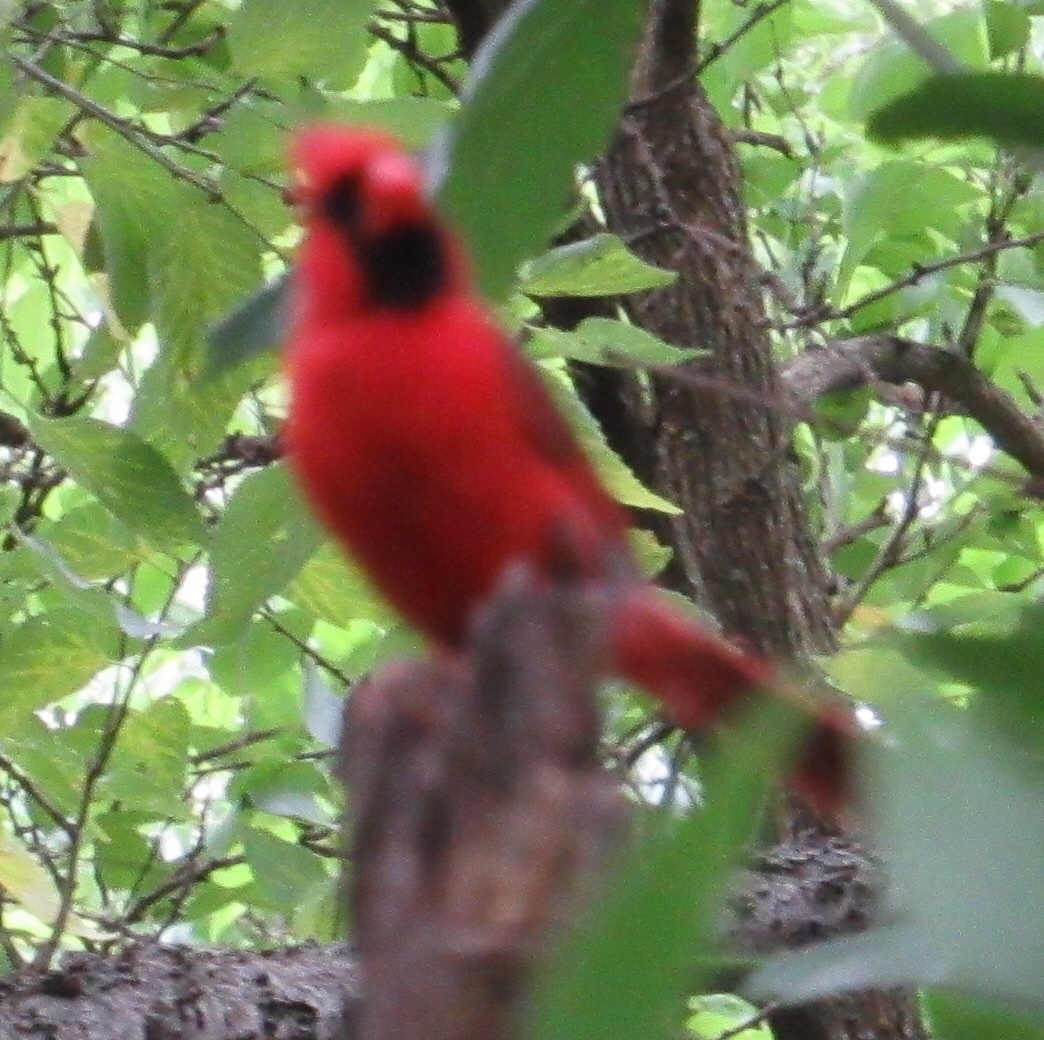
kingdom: Animalia
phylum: Chordata
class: Aves
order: Passeriformes
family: Cardinalidae
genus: Cardinalis
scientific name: Cardinalis cardinalis
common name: Northern cardinal
